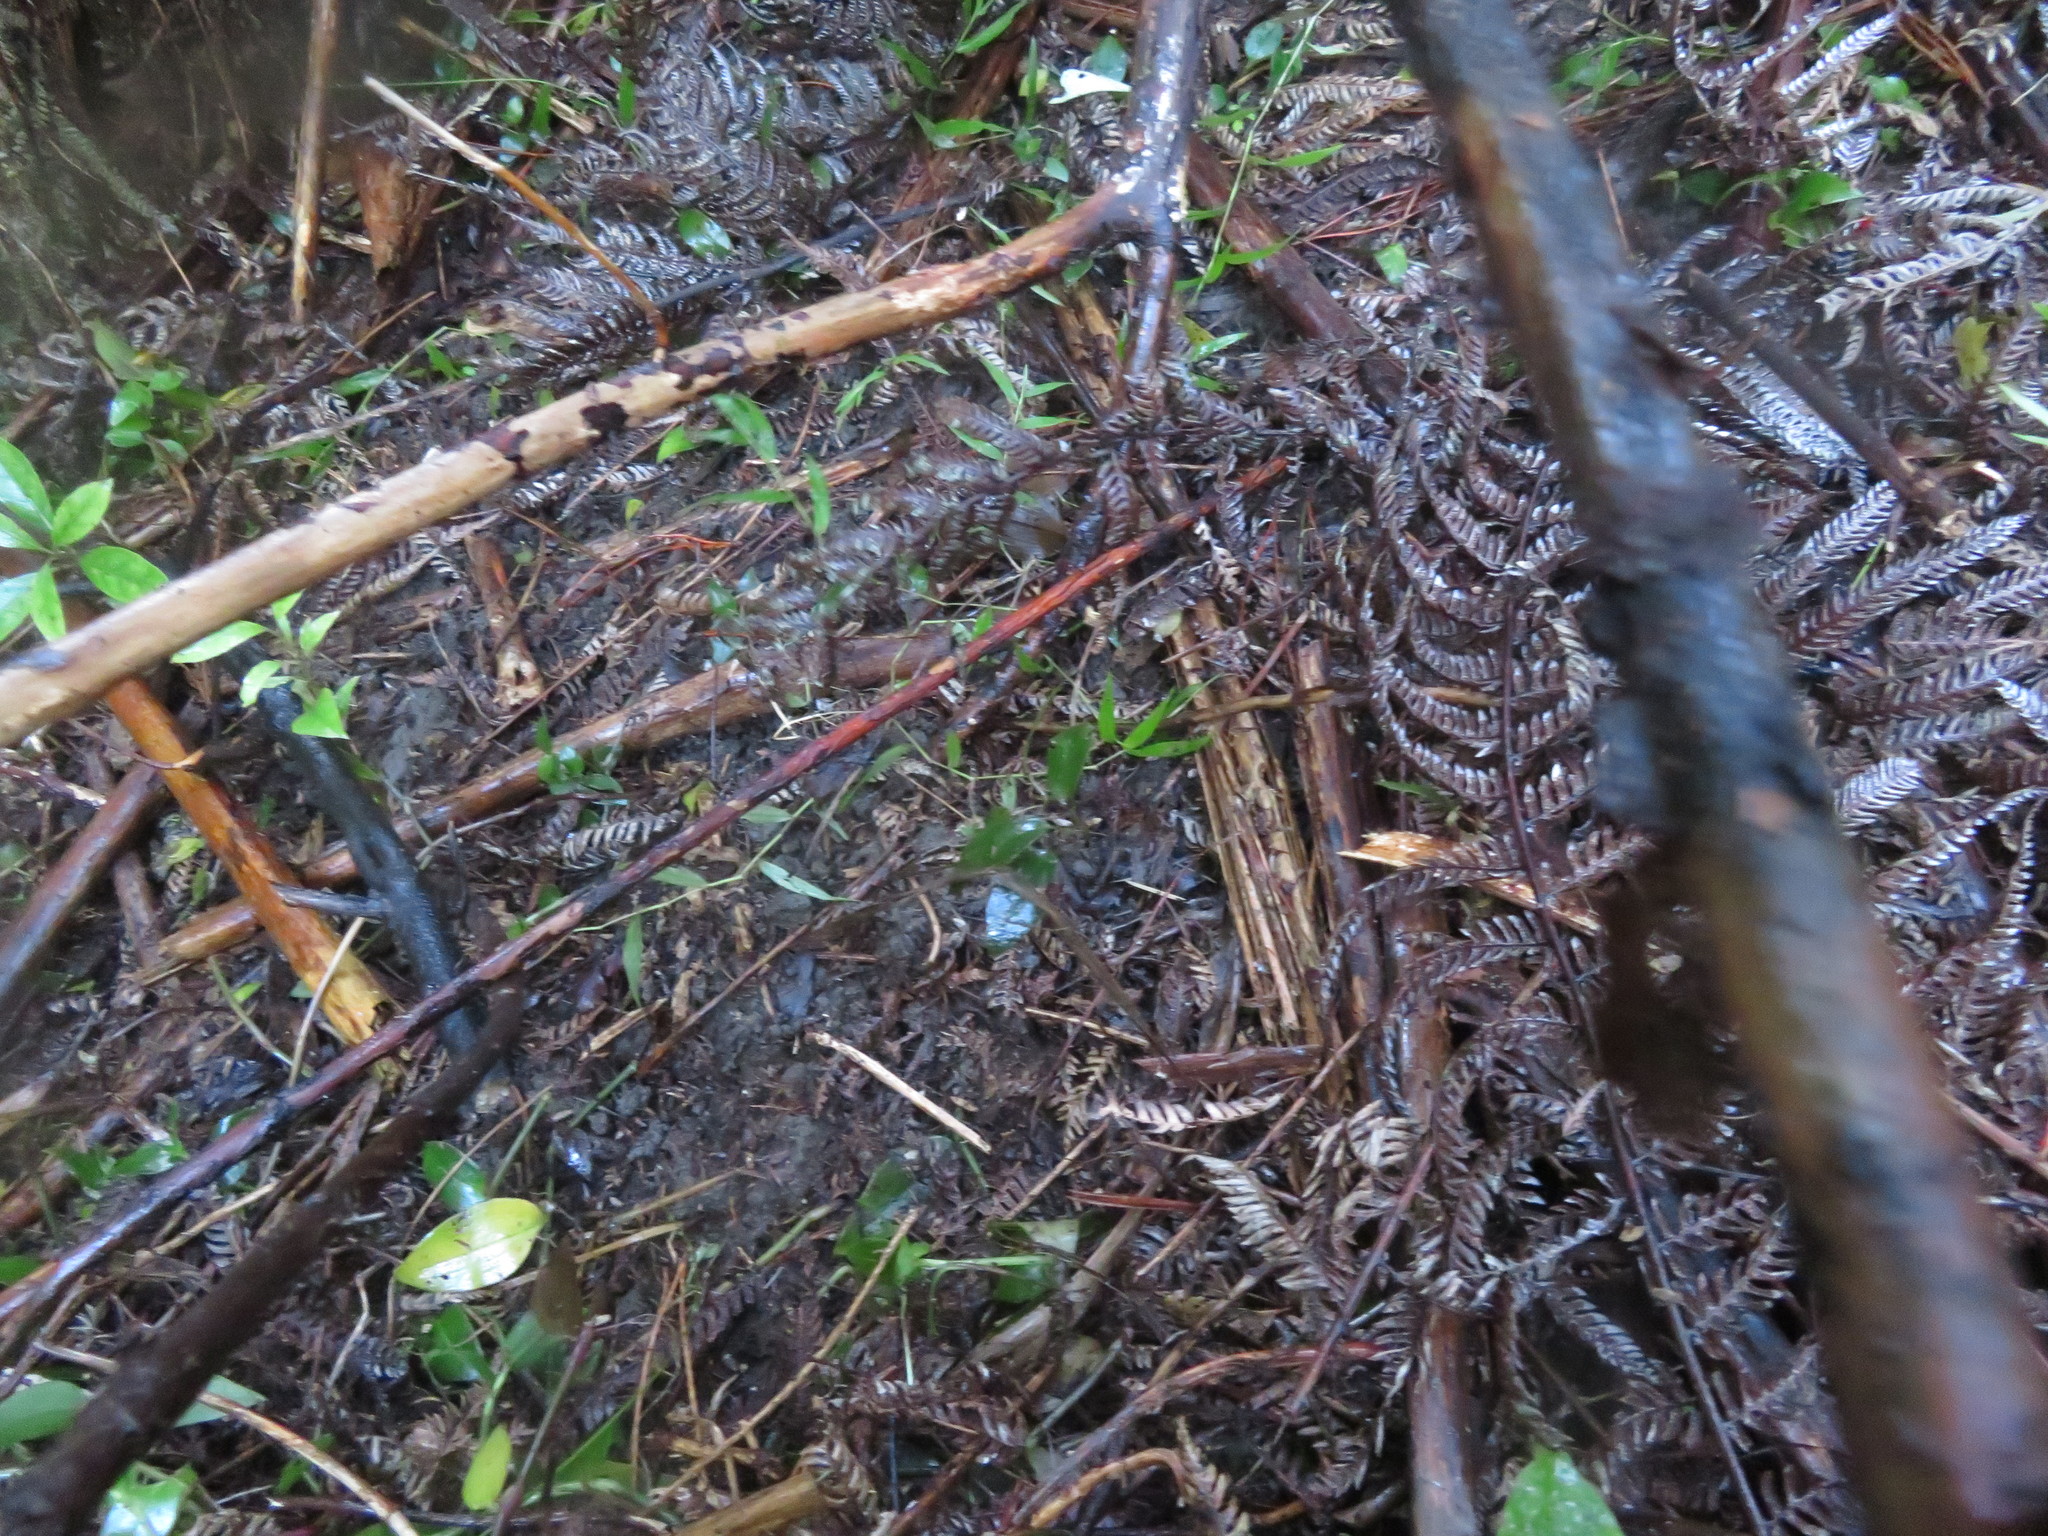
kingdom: Plantae
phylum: Tracheophyta
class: Liliopsida
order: Liliales
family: Ripogonaceae
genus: Ripogonum
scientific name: Ripogonum scandens
